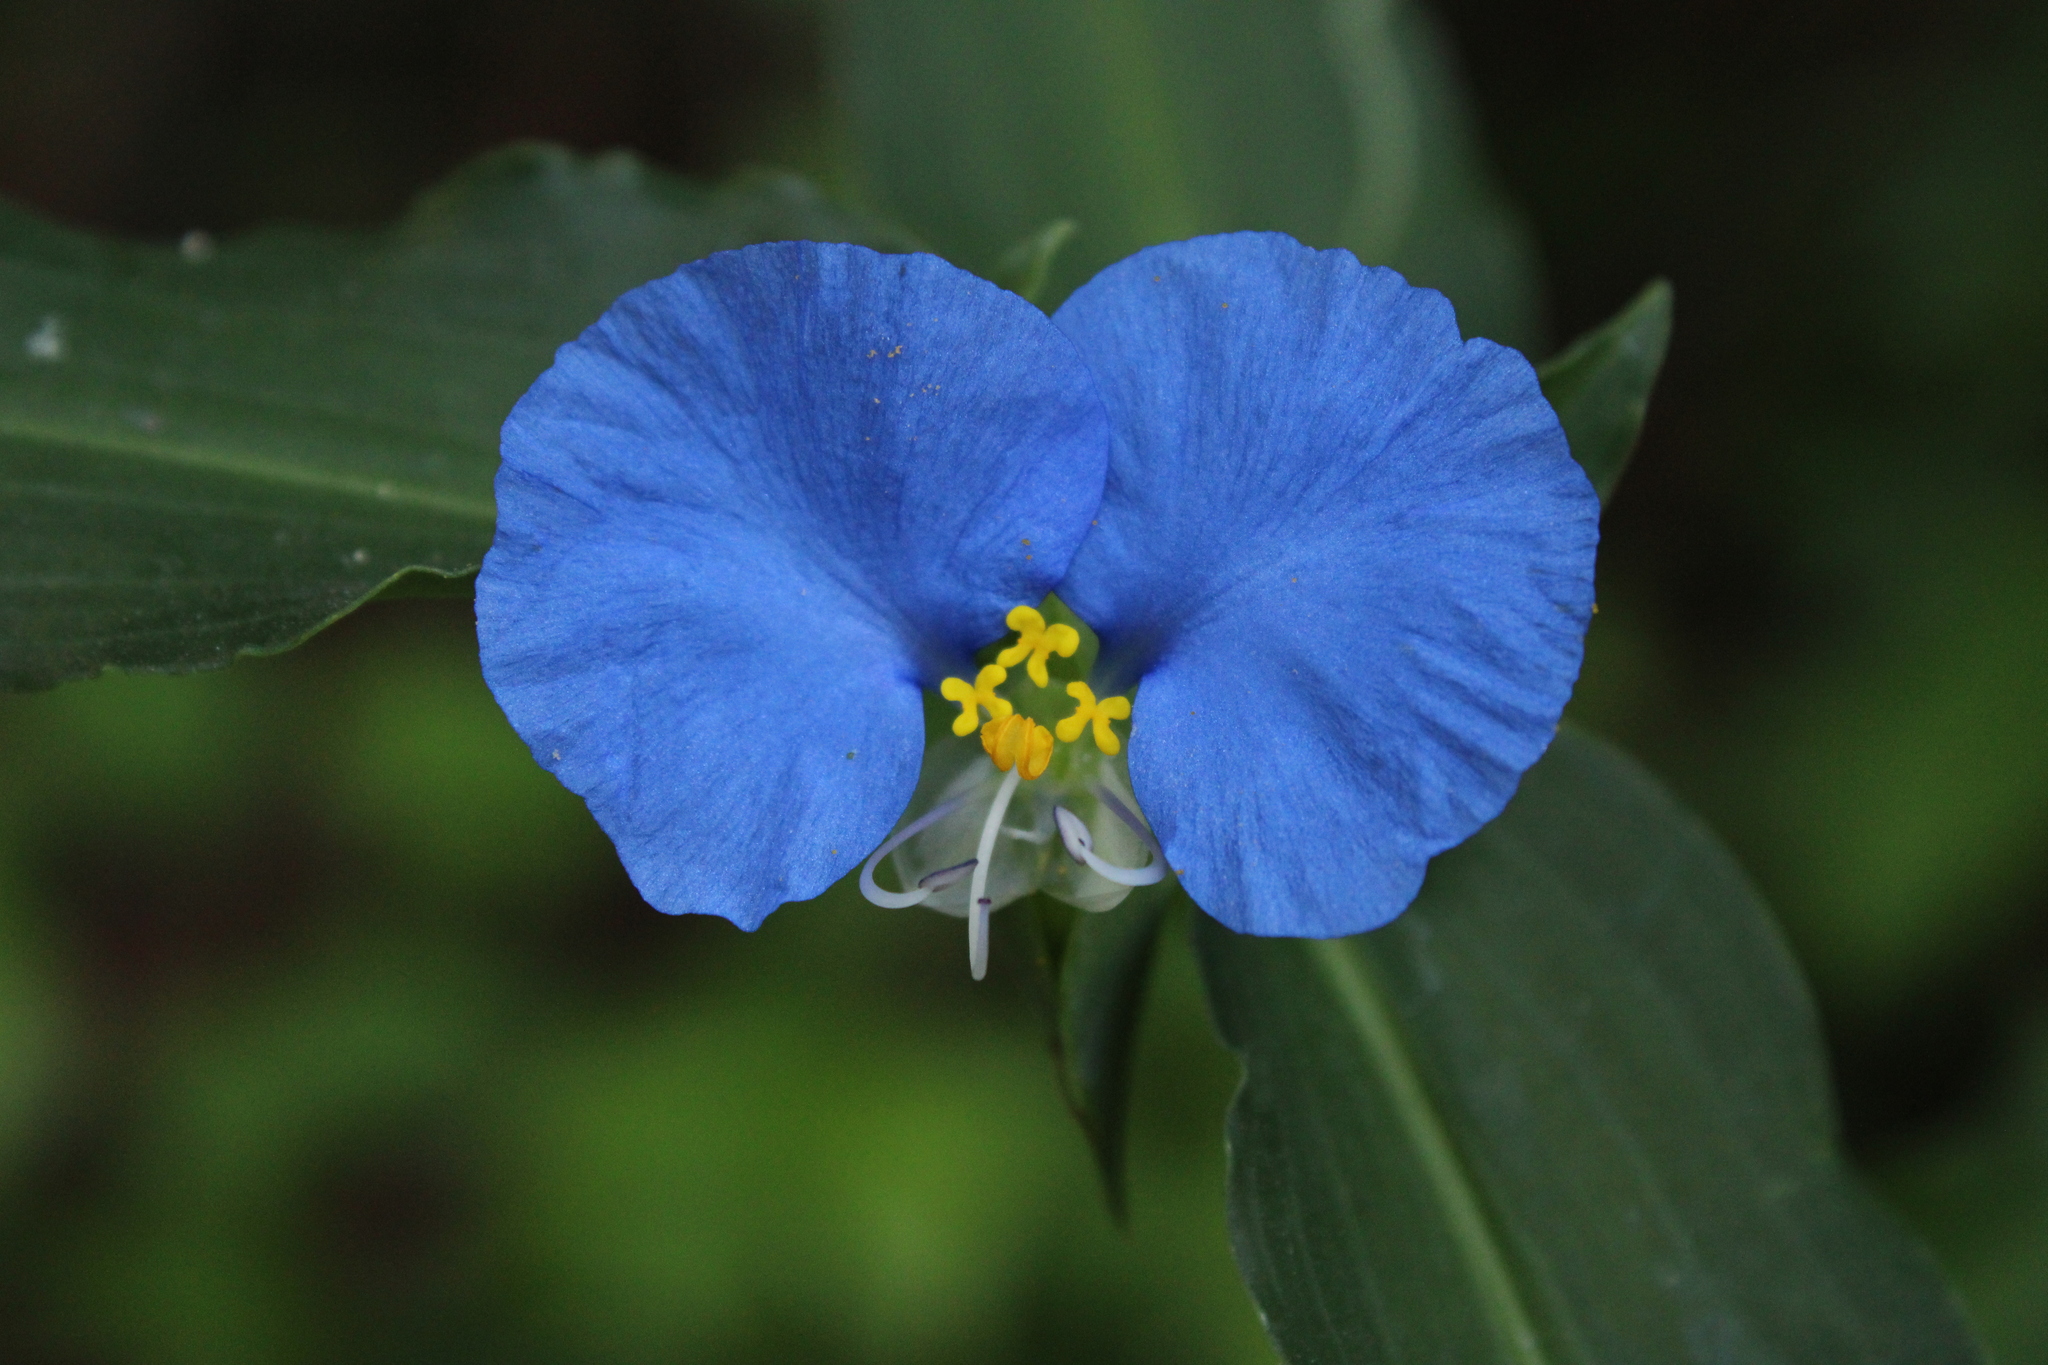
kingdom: Plantae
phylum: Tracheophyta
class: Liliopsida
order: Commelinales
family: Commelinaceae
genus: Commelina
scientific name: Commelina erecta
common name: Blousel blommetjie
